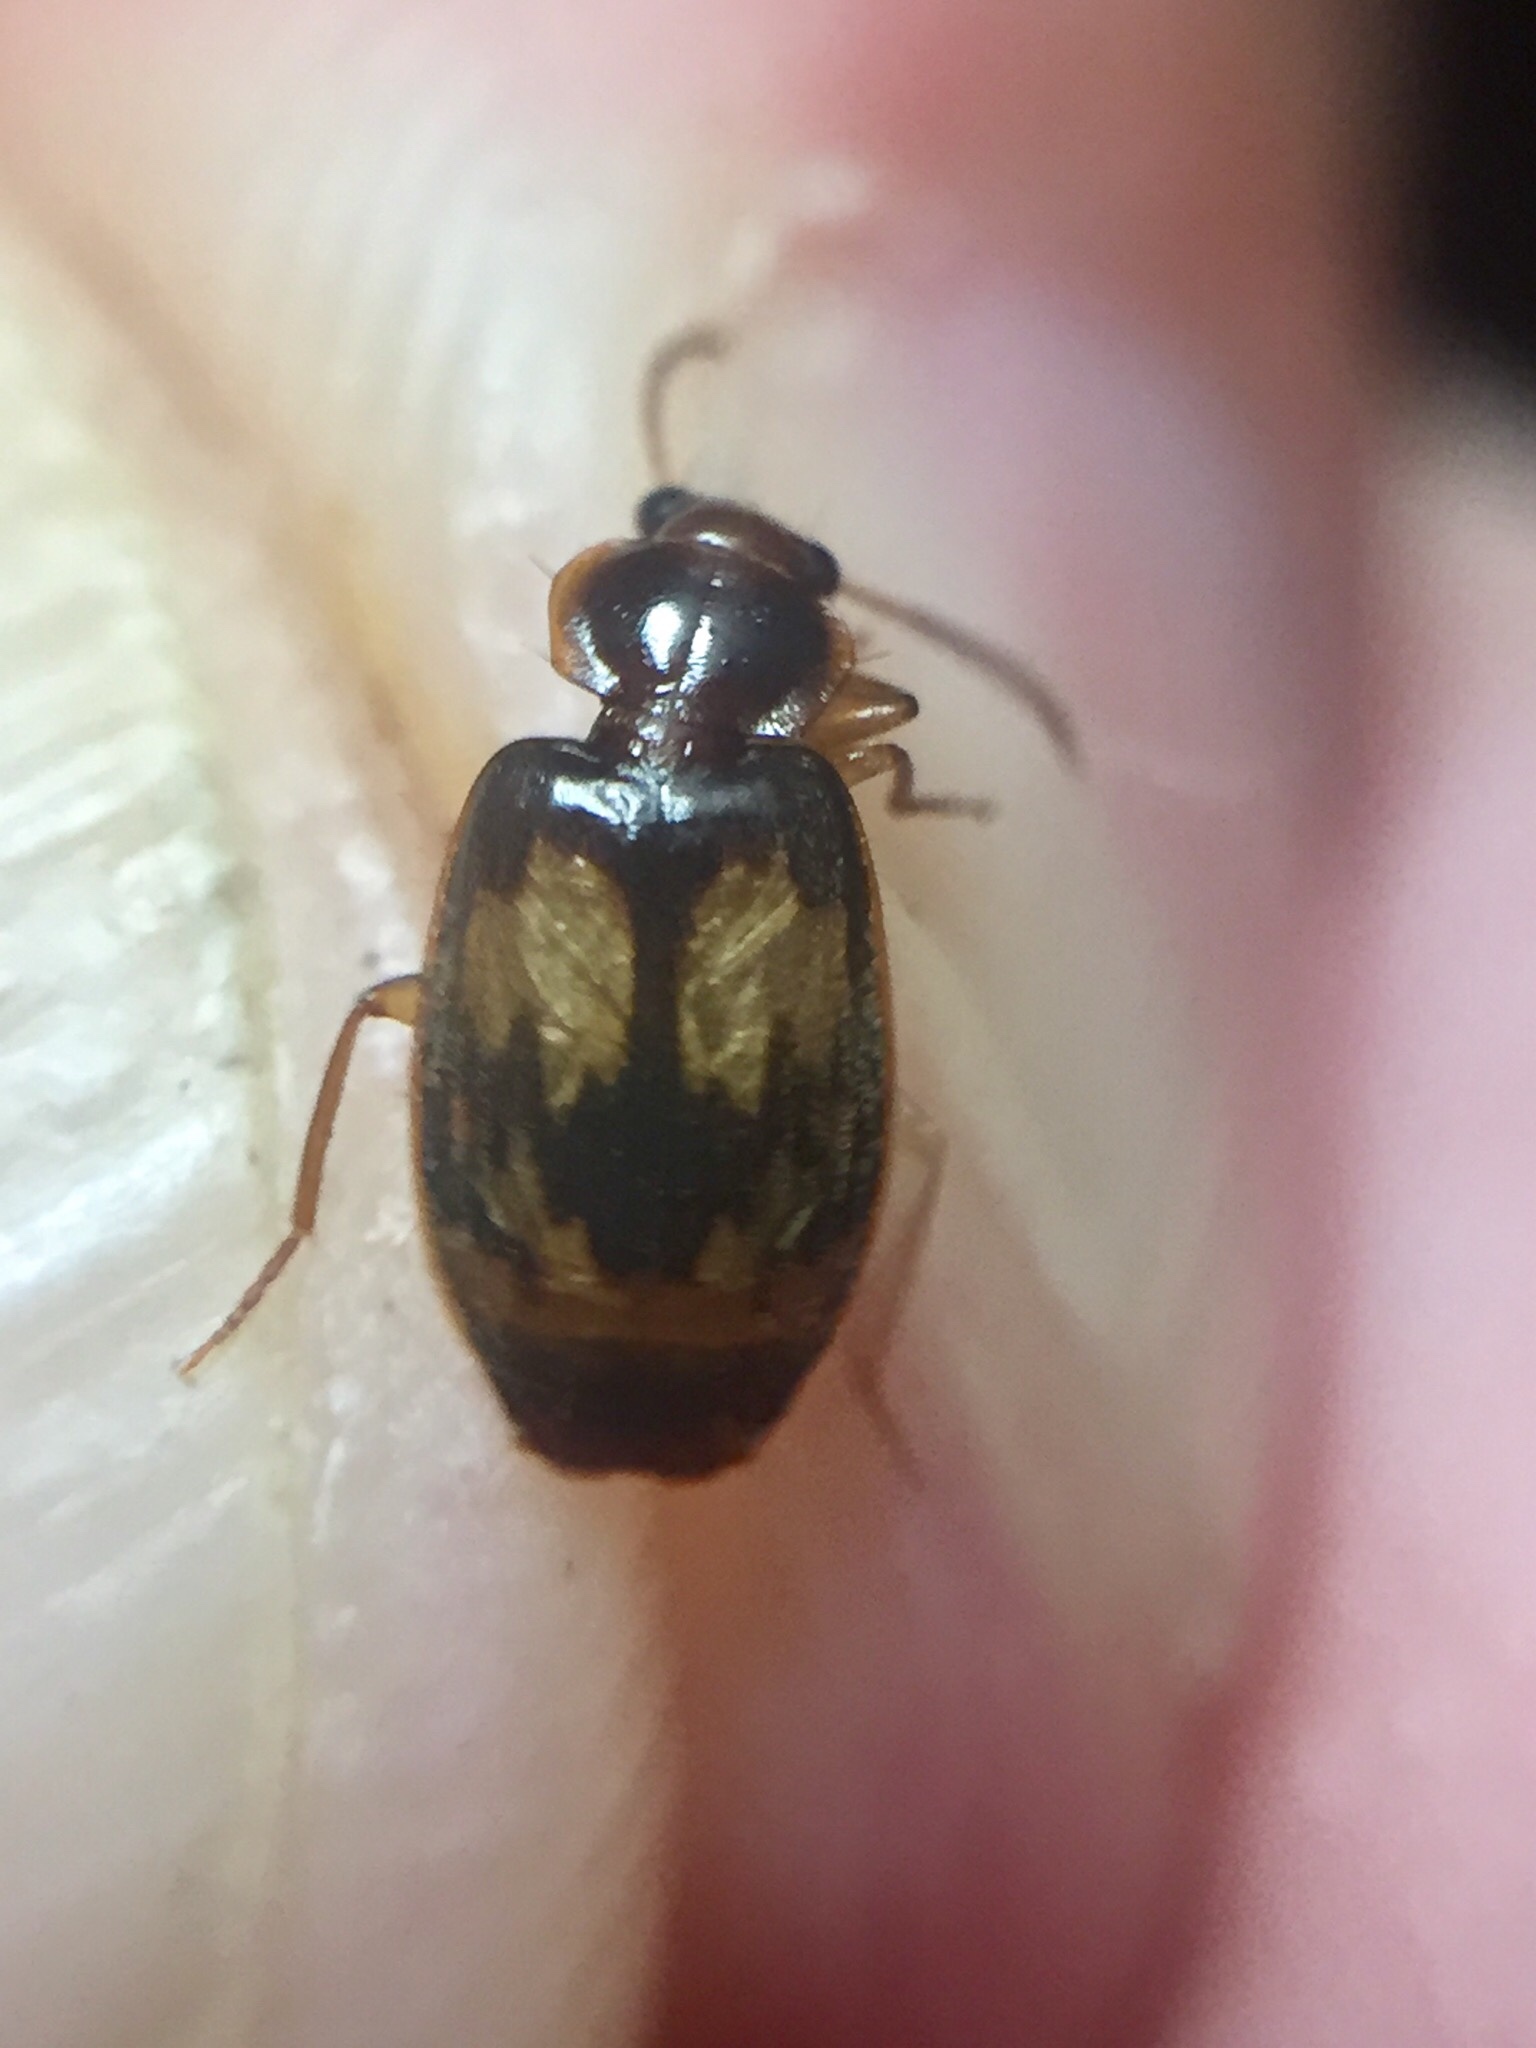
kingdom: Animalia
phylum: Arthropoda
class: Insecta
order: Coleoptera
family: Carabidae
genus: Philophlaeus
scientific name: Philophlaeus luculentus
